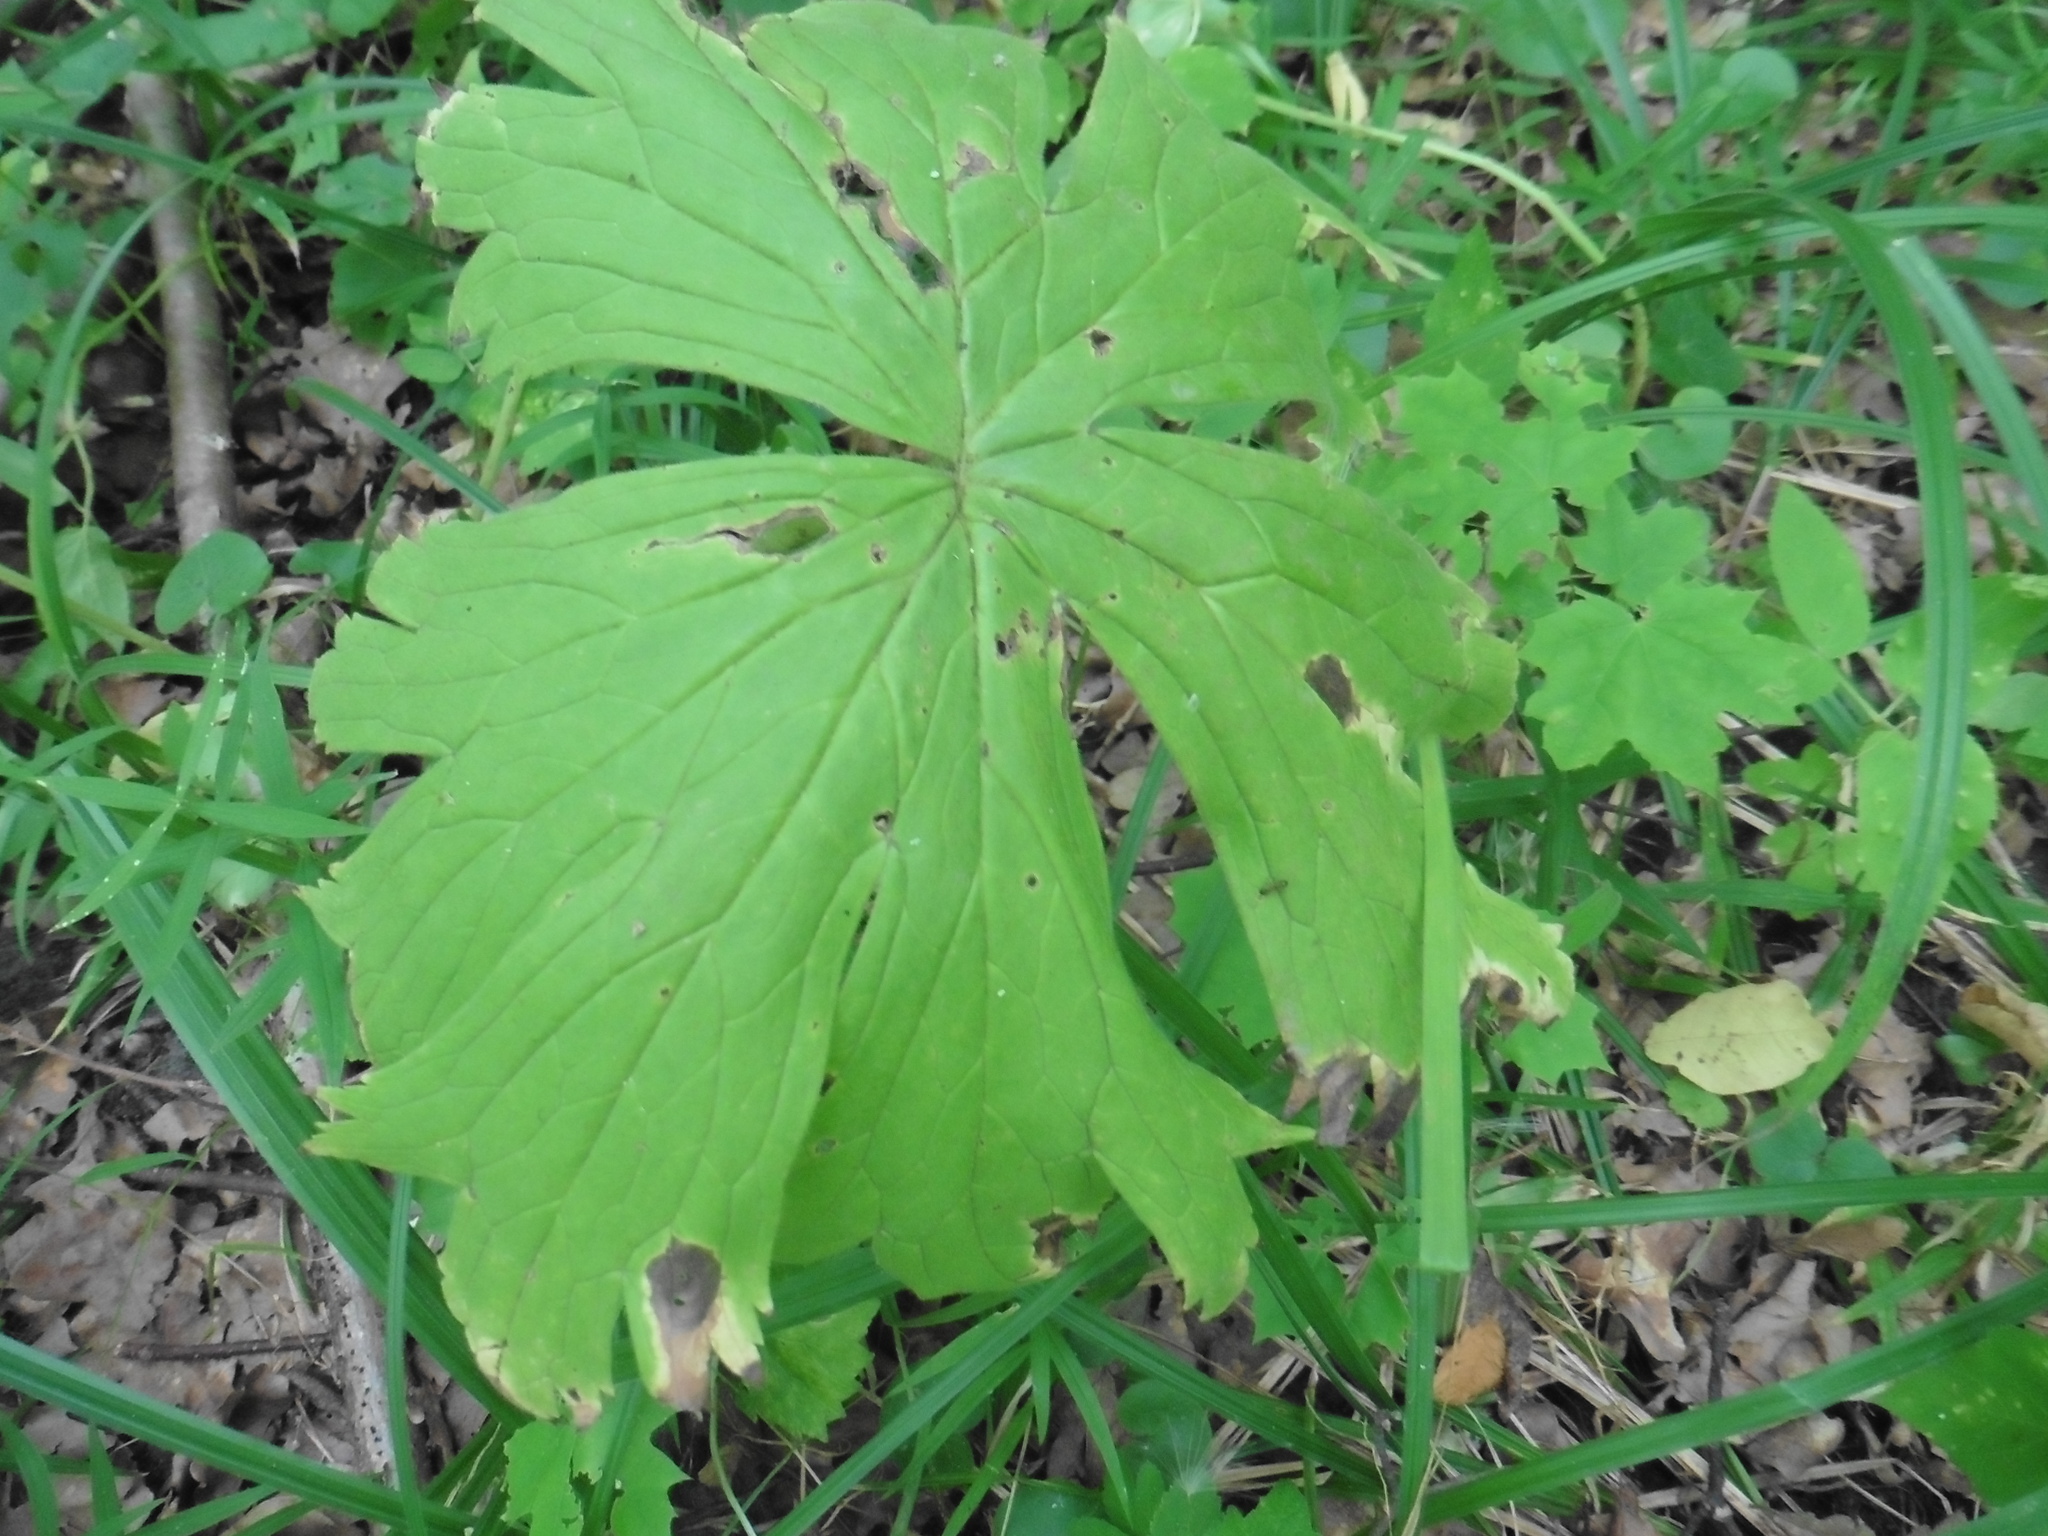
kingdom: Plantae
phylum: Tracheophyta
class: Magnoliopsida
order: Ranunculales
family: Ranunculaceae
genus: Aconitum
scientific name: Aconitum septentrionale
